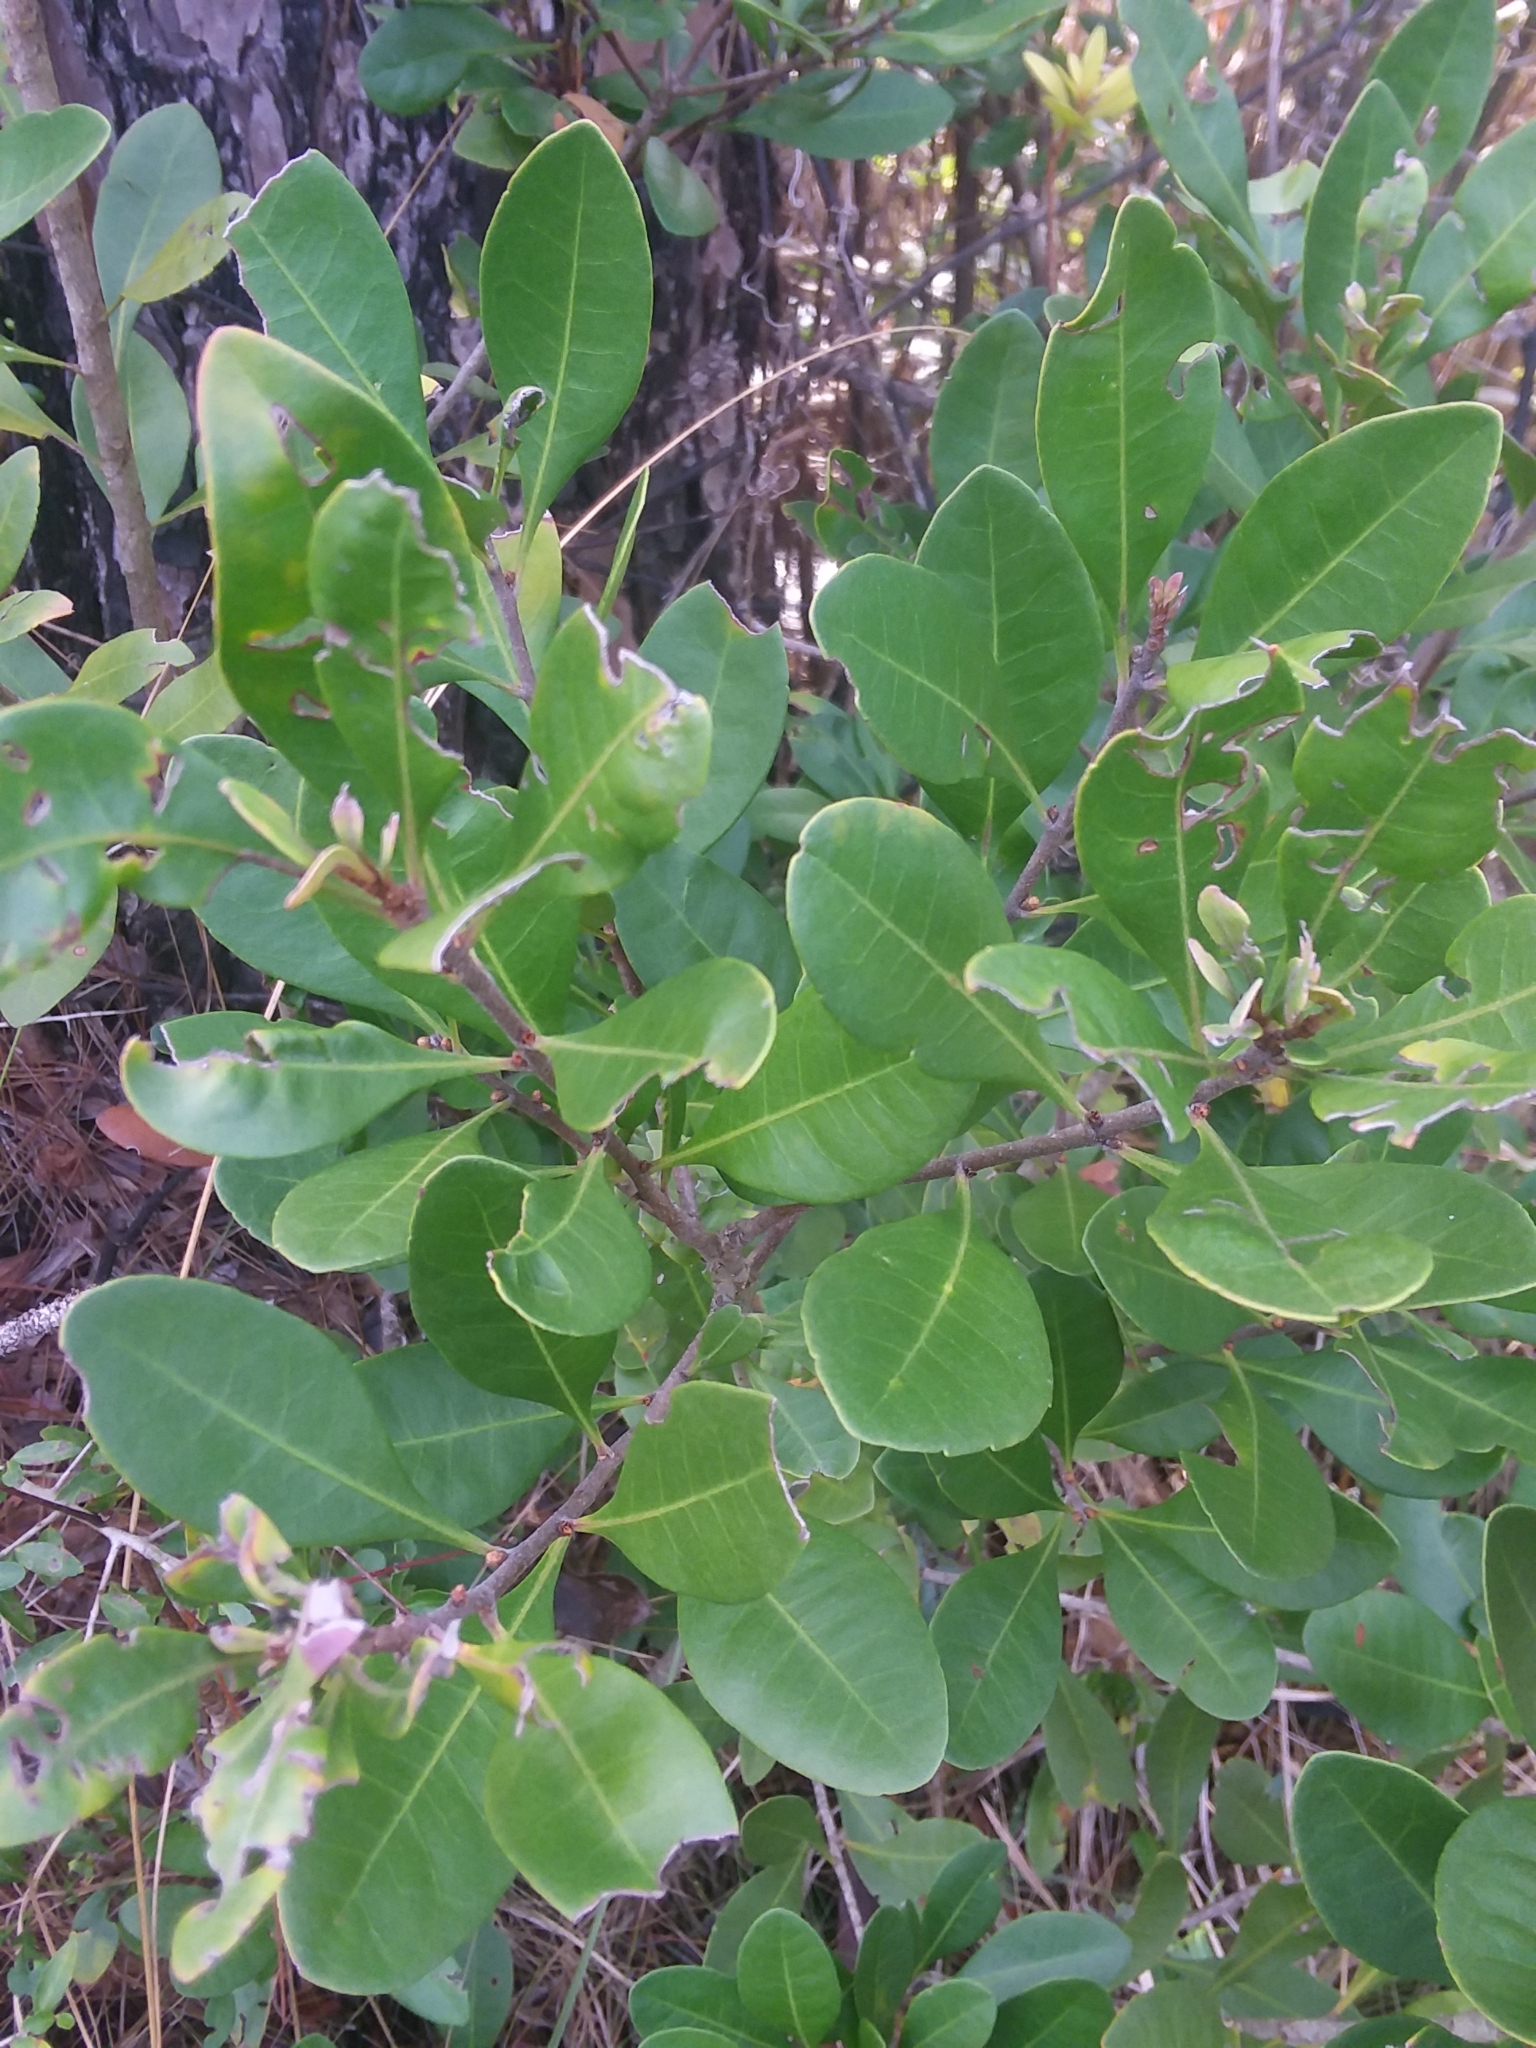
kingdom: Plantae
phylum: Tracheophyta
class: Magnoliopsida
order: Fagales
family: Myricaceae
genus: Morella
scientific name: Morella inodora
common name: Candle-berry
